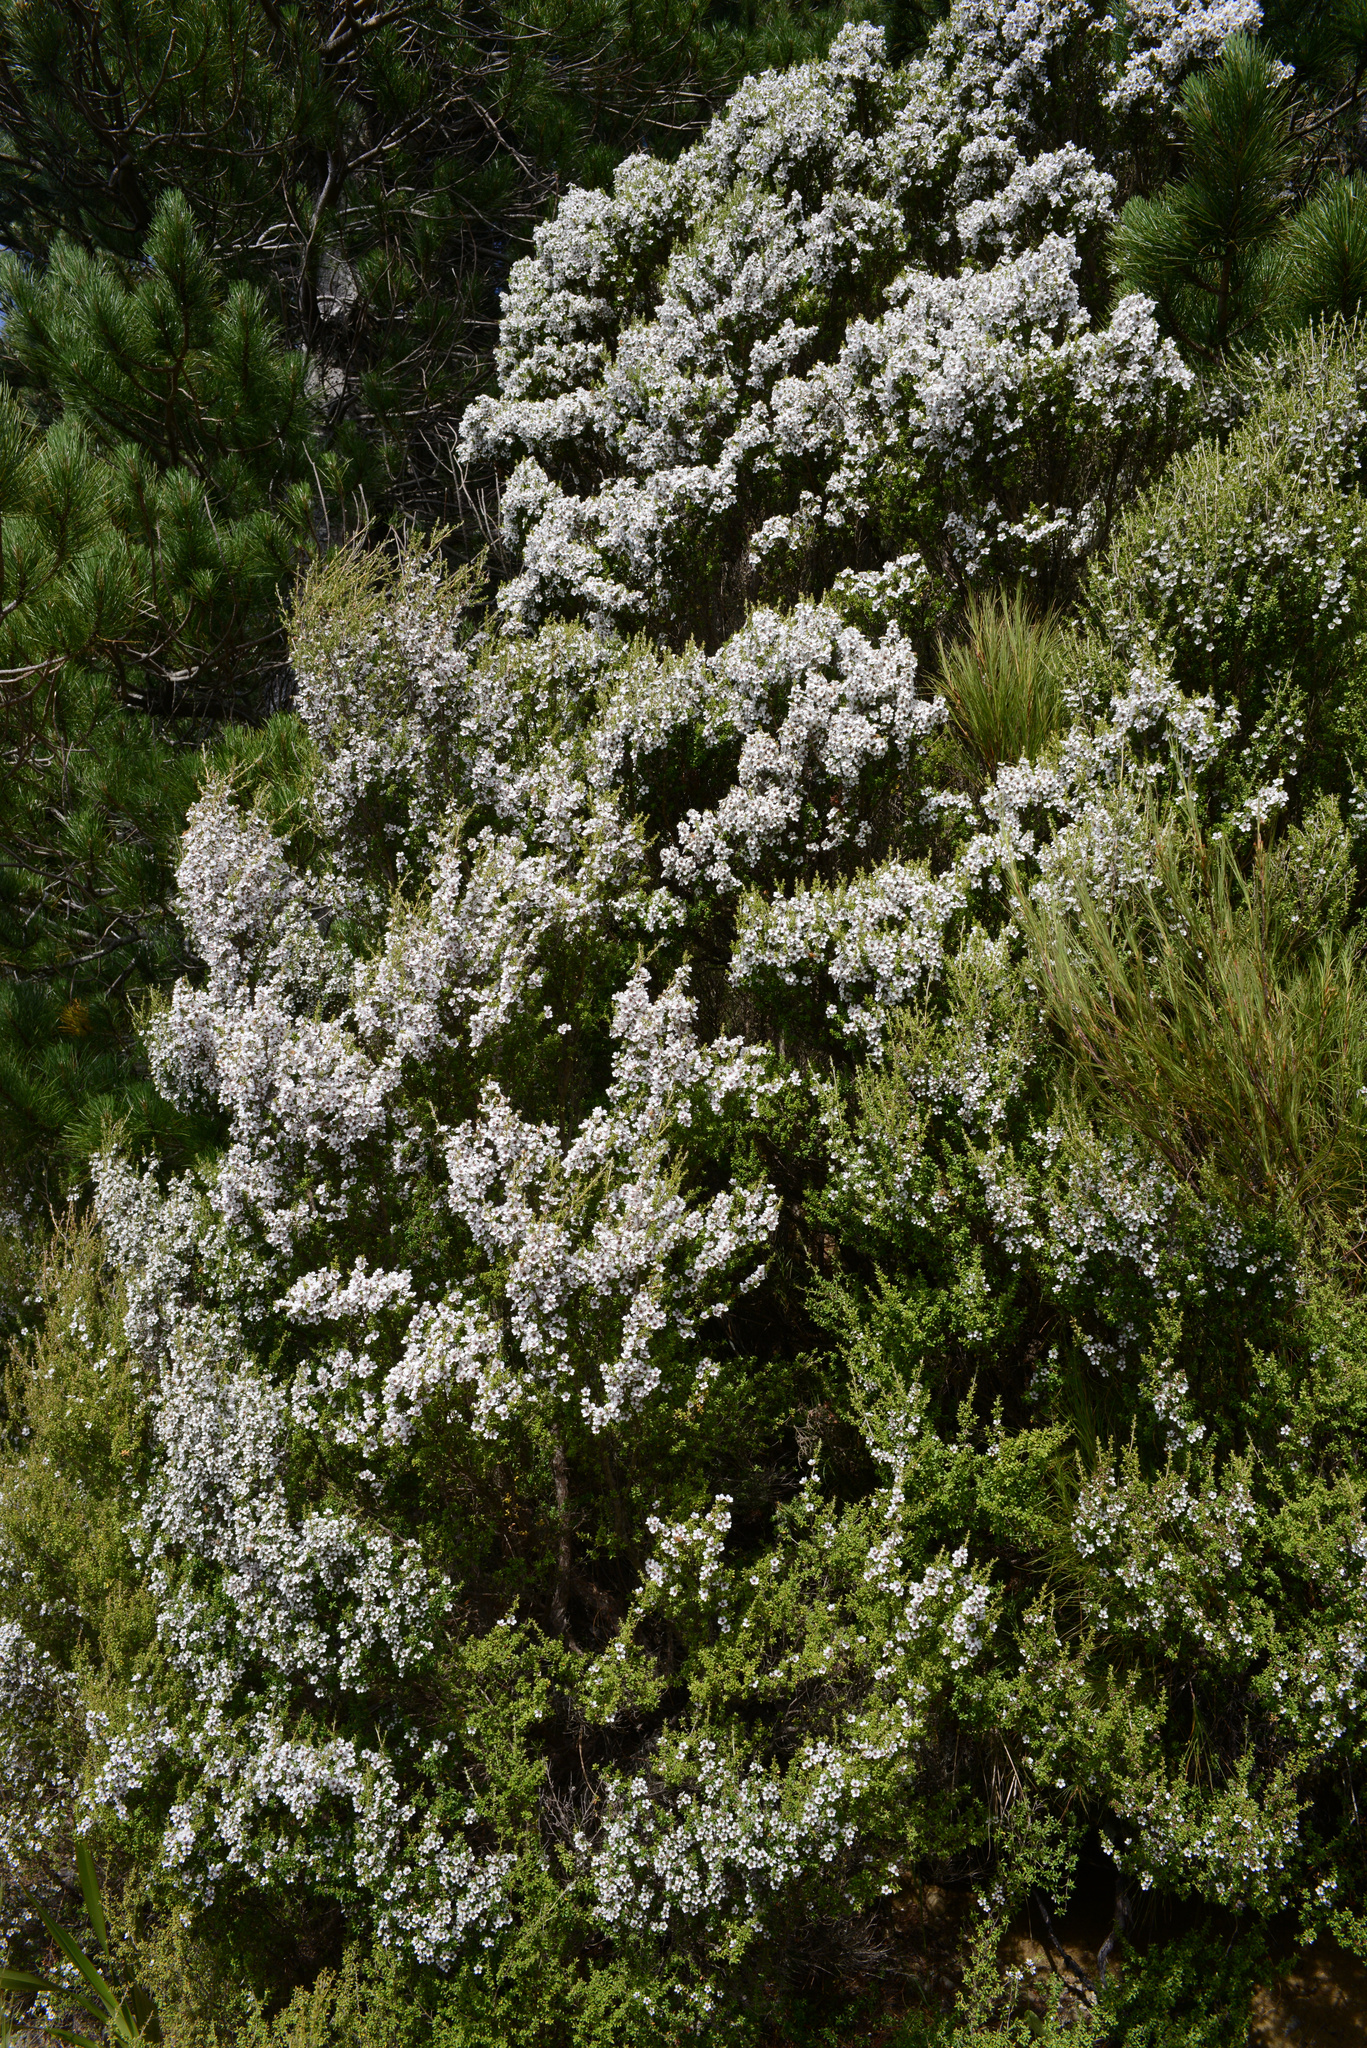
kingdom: Plantae
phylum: Tracheophyta
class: Magnoliopsida
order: Myrtales
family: Myrtaceae
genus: Leptospermum
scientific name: Leptospermum scoparium
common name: Broom tea-tree
